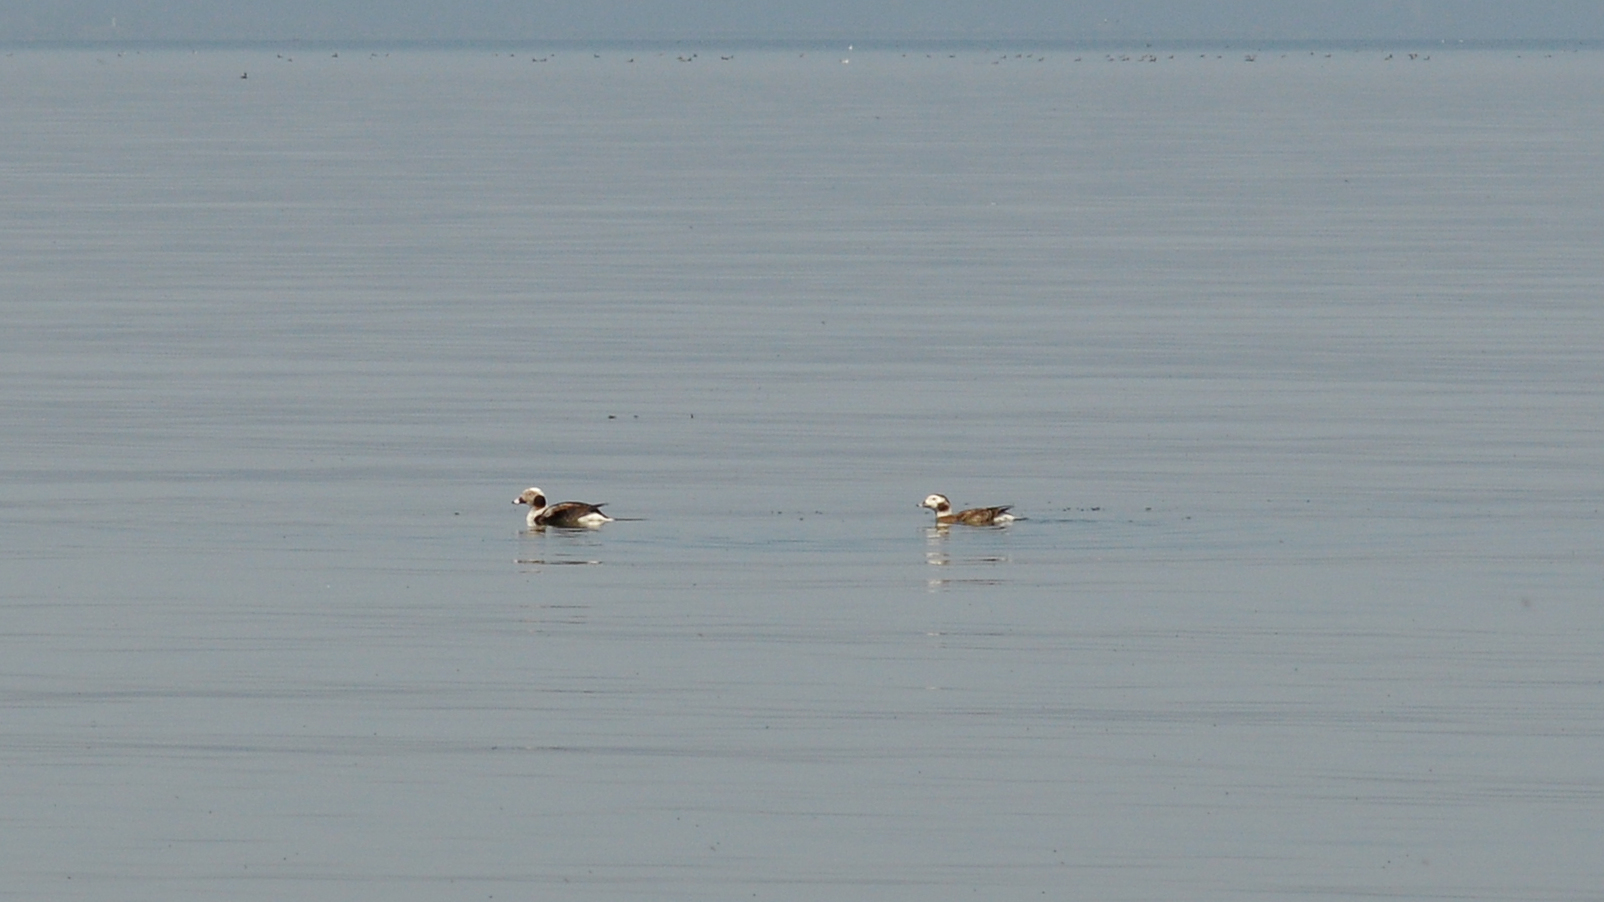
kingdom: Animalia
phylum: Chordata
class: Aves
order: Anseriformes
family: Anatidae
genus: Clangula
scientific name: Clangula hyemalis
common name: Long-tailed duck
